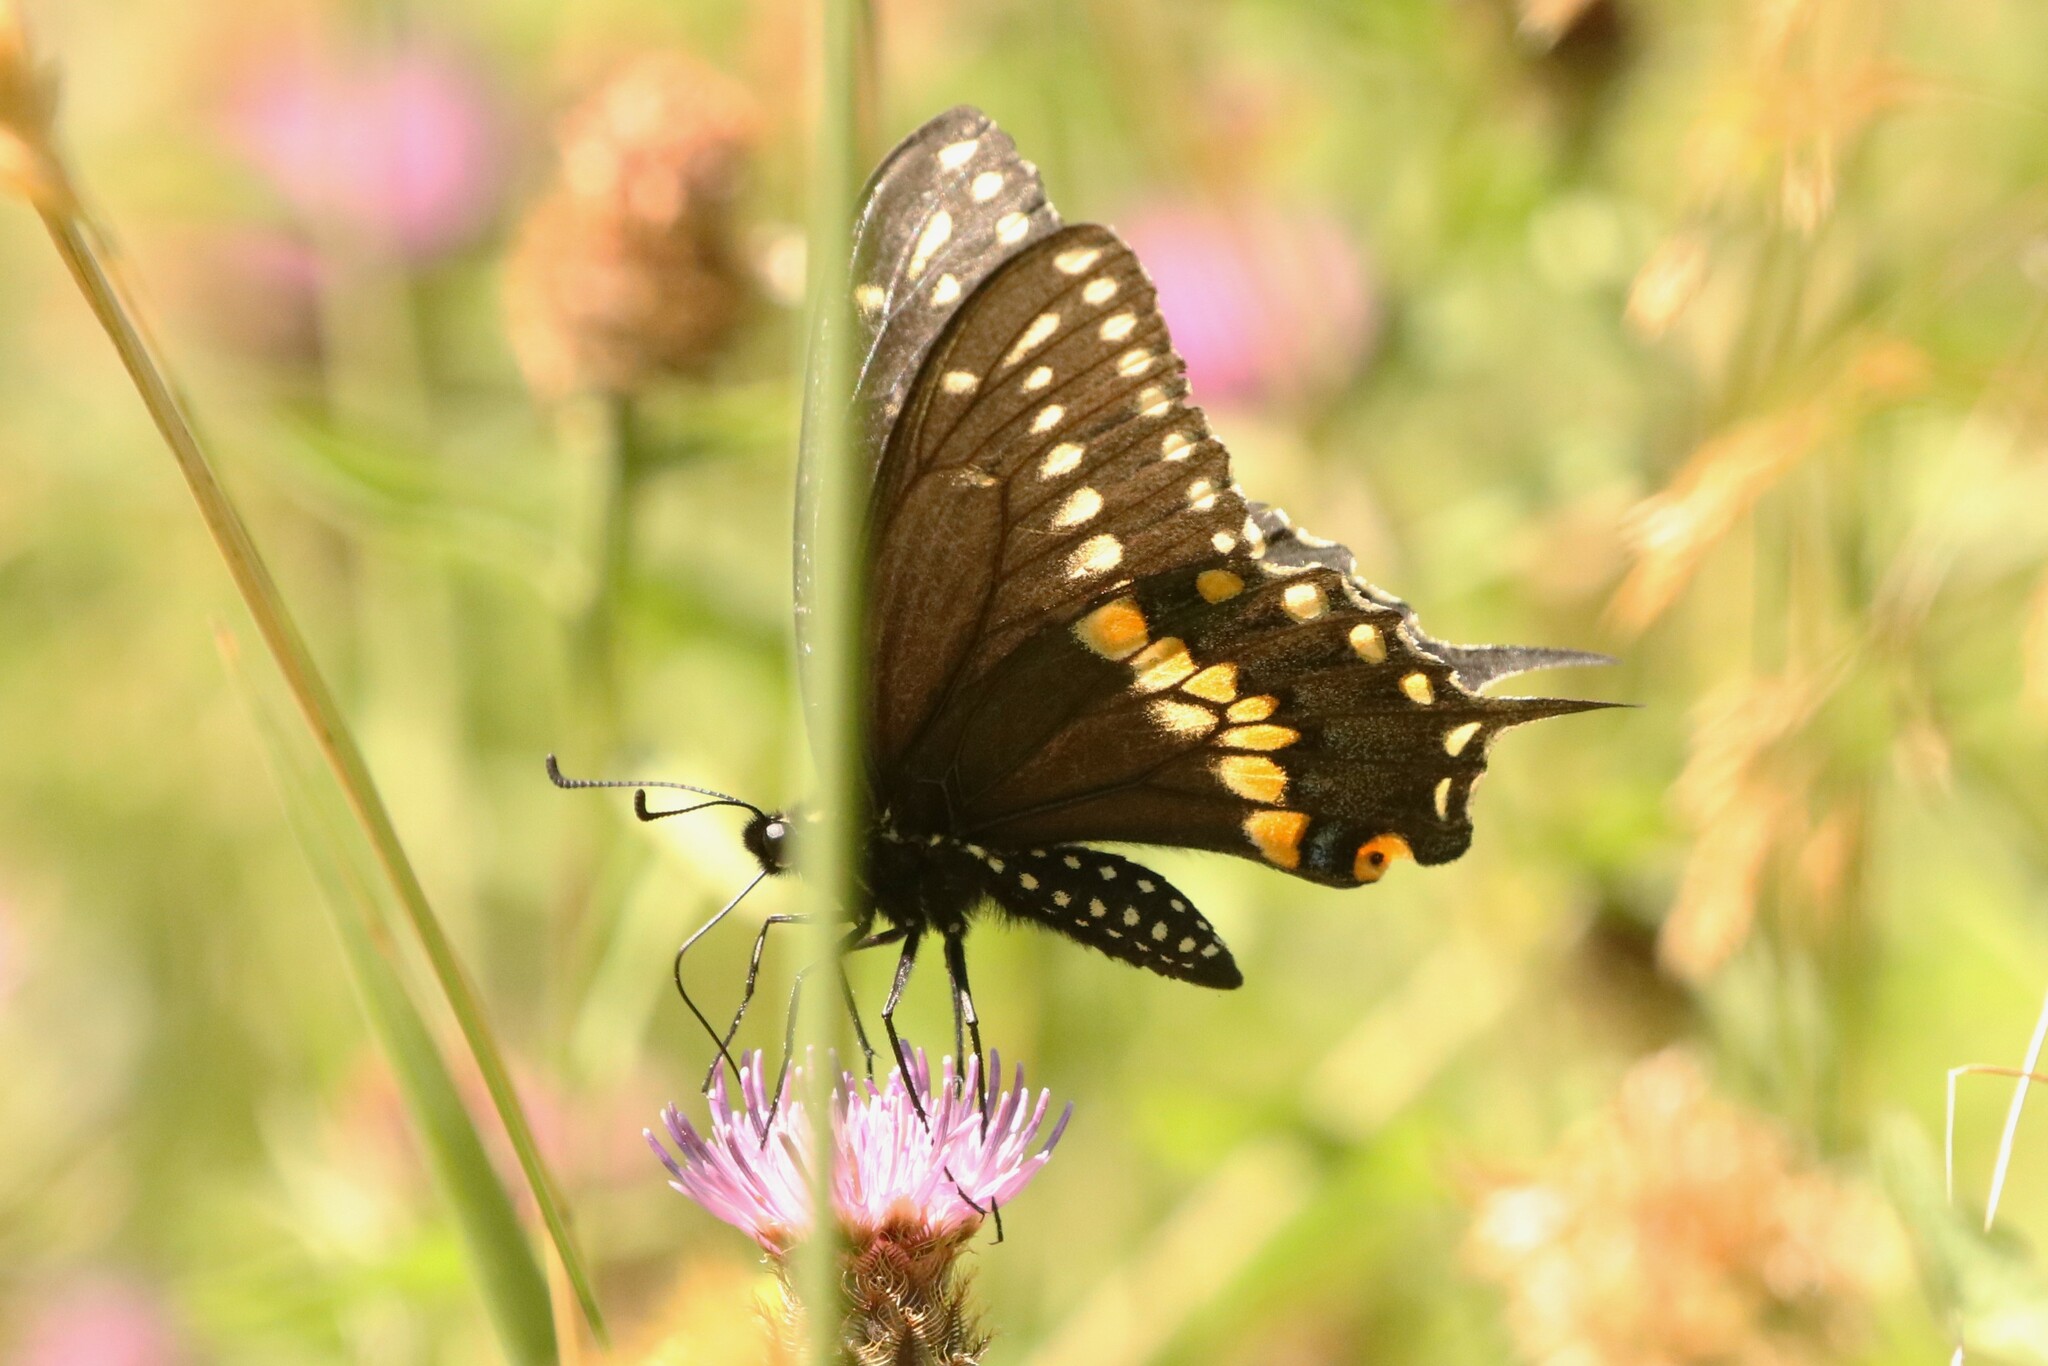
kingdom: Animalia
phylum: Arthropoda
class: Insecta
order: Lepidoptera
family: Papilionidae
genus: Papilio
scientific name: Papilio polyxenes
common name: Black swallowtail
